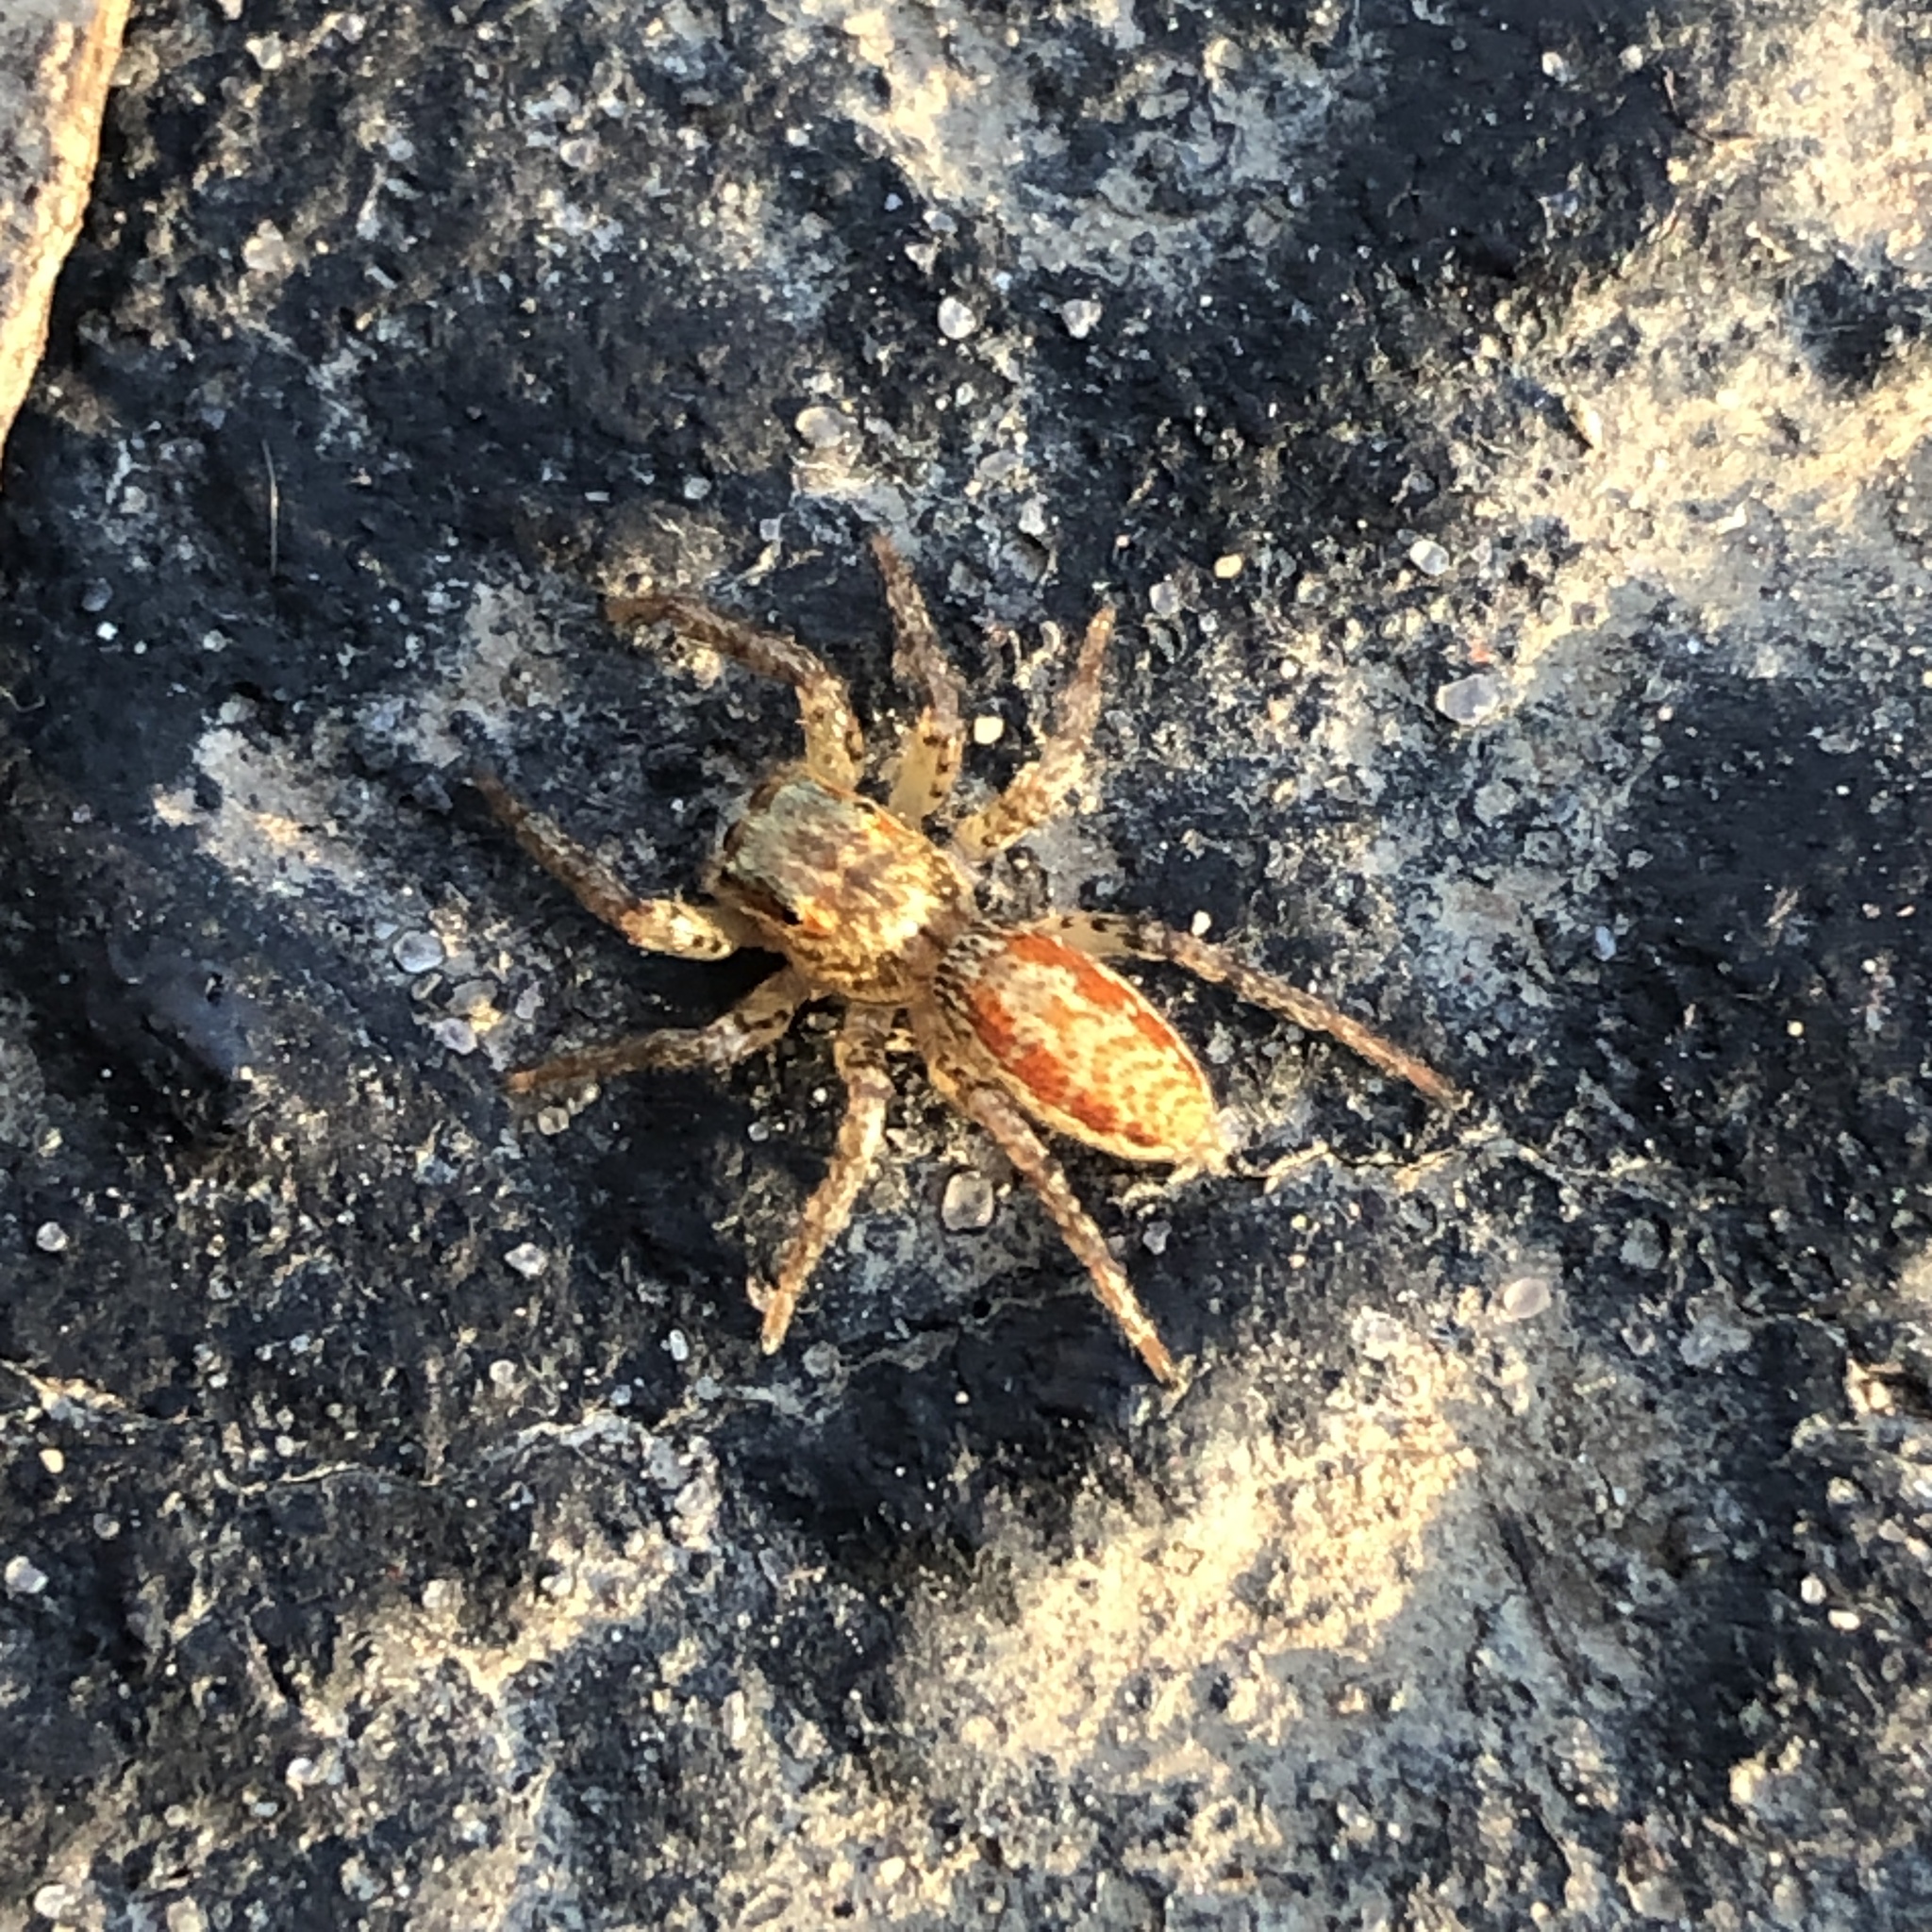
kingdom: Animalia
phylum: Arthropoda
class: Arachnida
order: Araneae
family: Salticidae
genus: Maevia
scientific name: Maevia inclemens
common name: Dimorphic jumper
